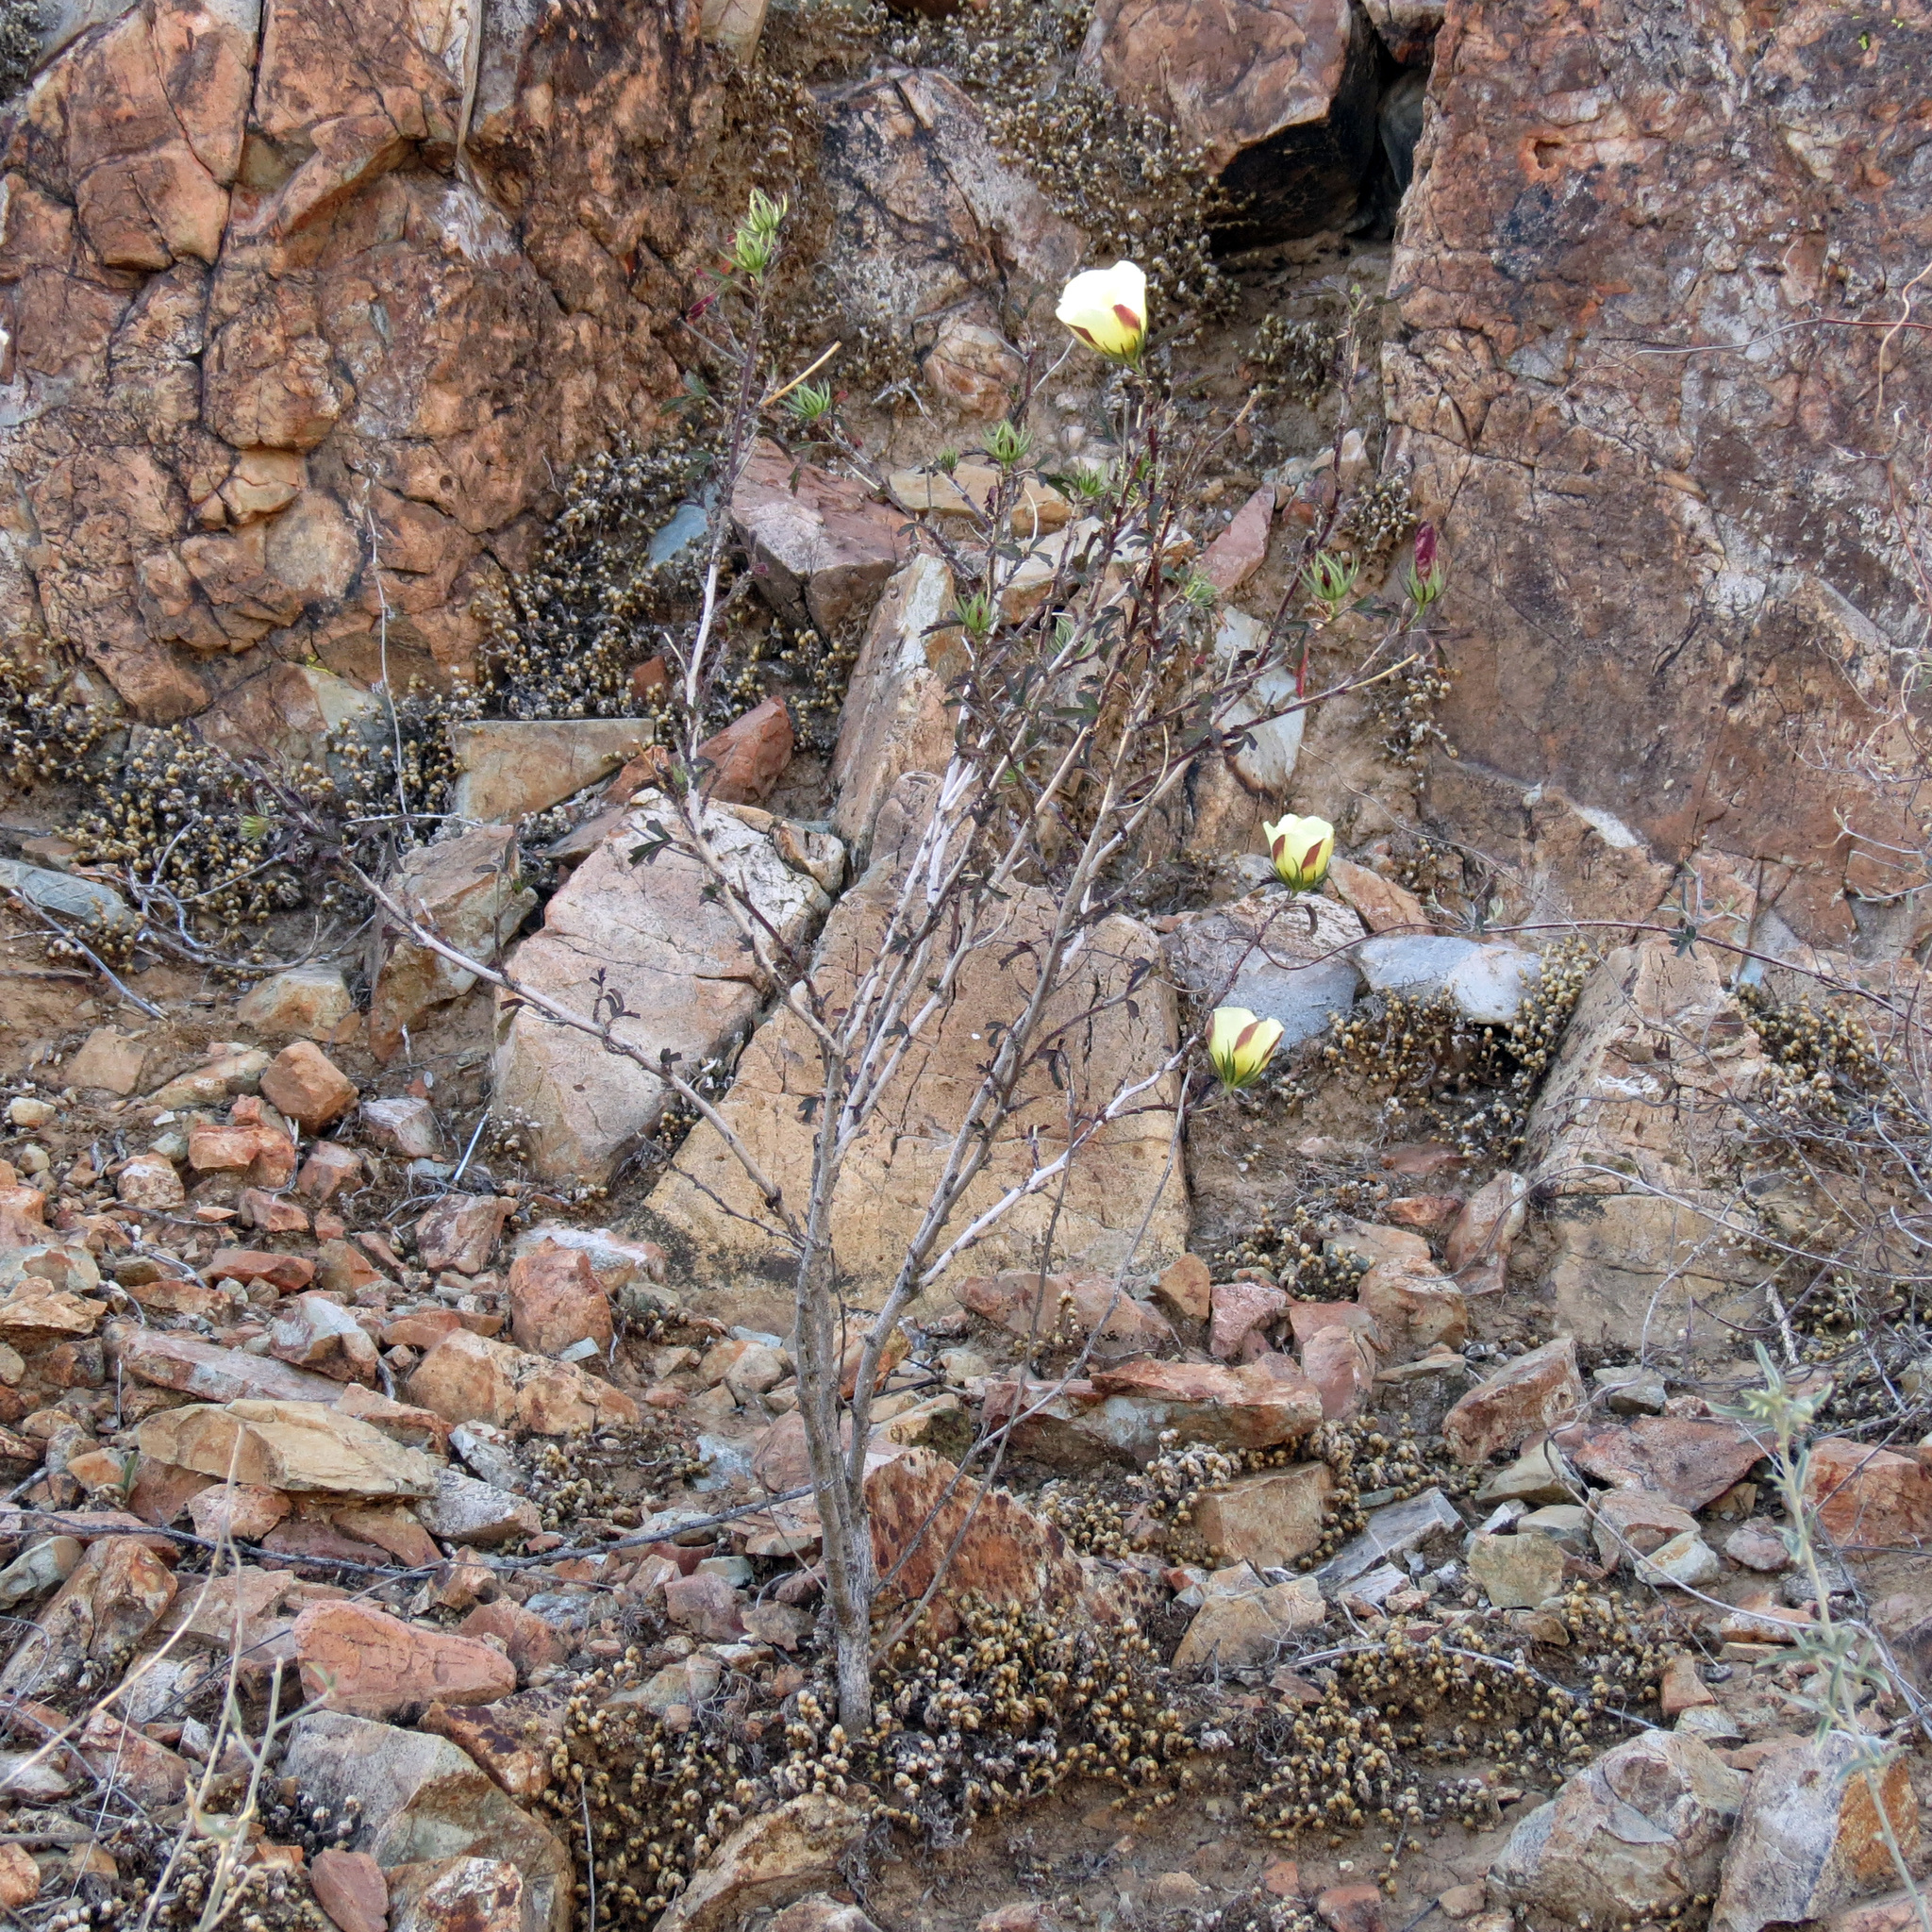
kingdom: Plantae
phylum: Tracheophyta
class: Magnoliopsida
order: Malvales
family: Malvaceae
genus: Hibiscus
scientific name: Hibiscus coulteri
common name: Desert rose-mallow
